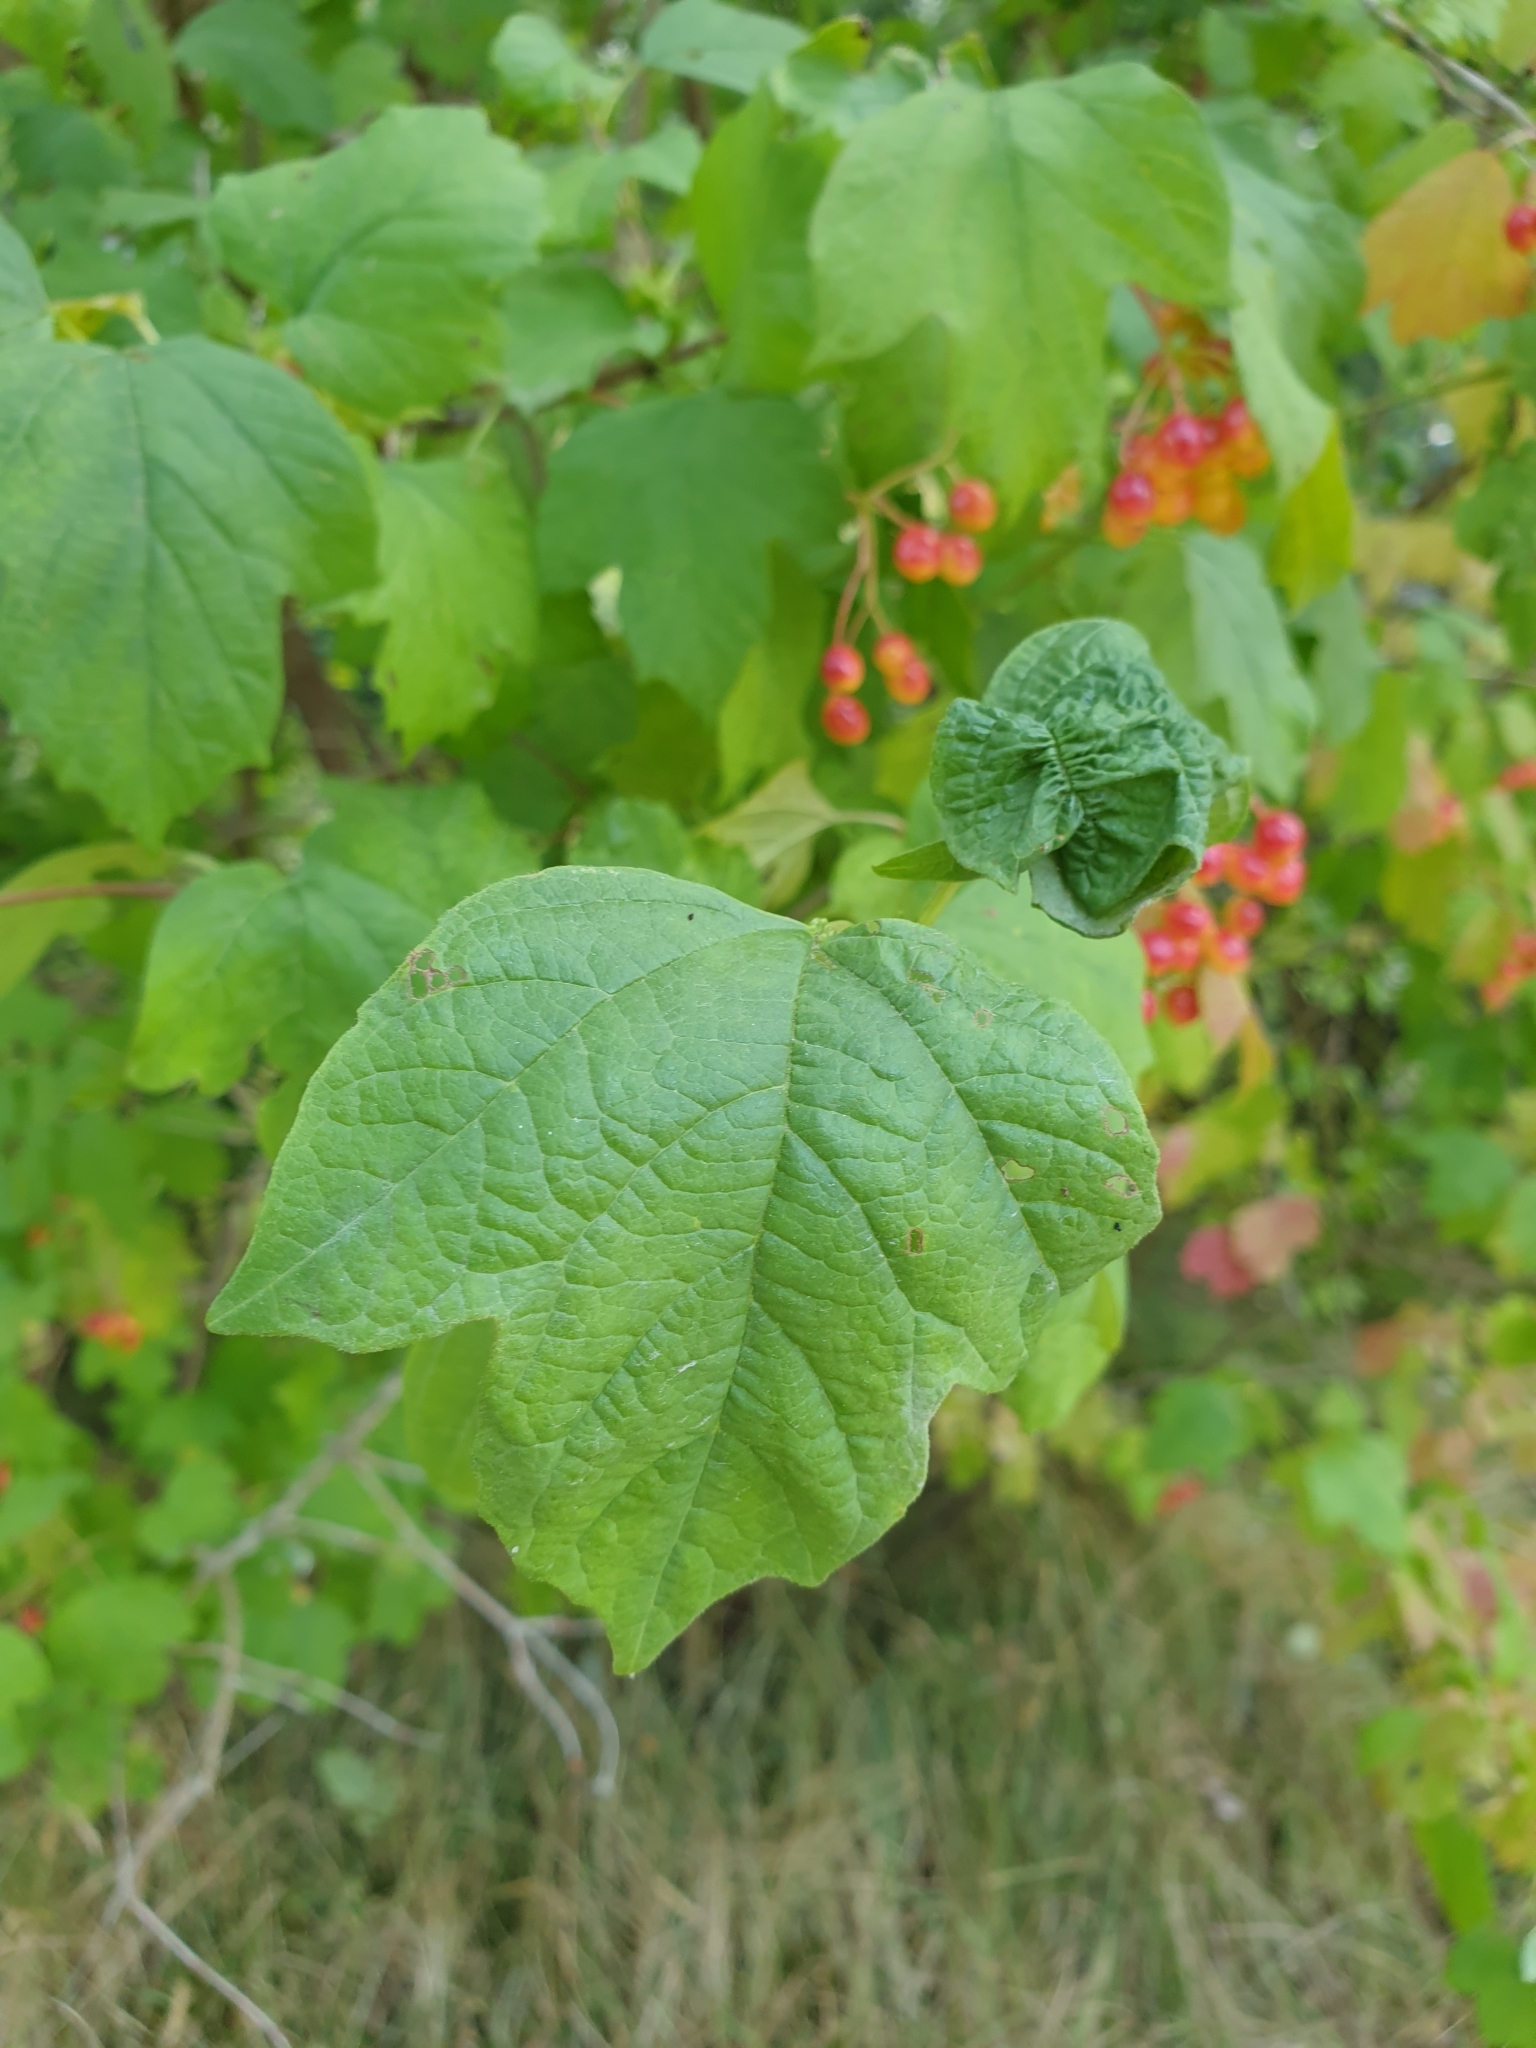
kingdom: Plantae
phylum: Tracheophyta
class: Magnoliopsida
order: Dipsacales
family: Viburnaceae
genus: Viburnum
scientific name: Viburnum opulus
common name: Guelder-rose
